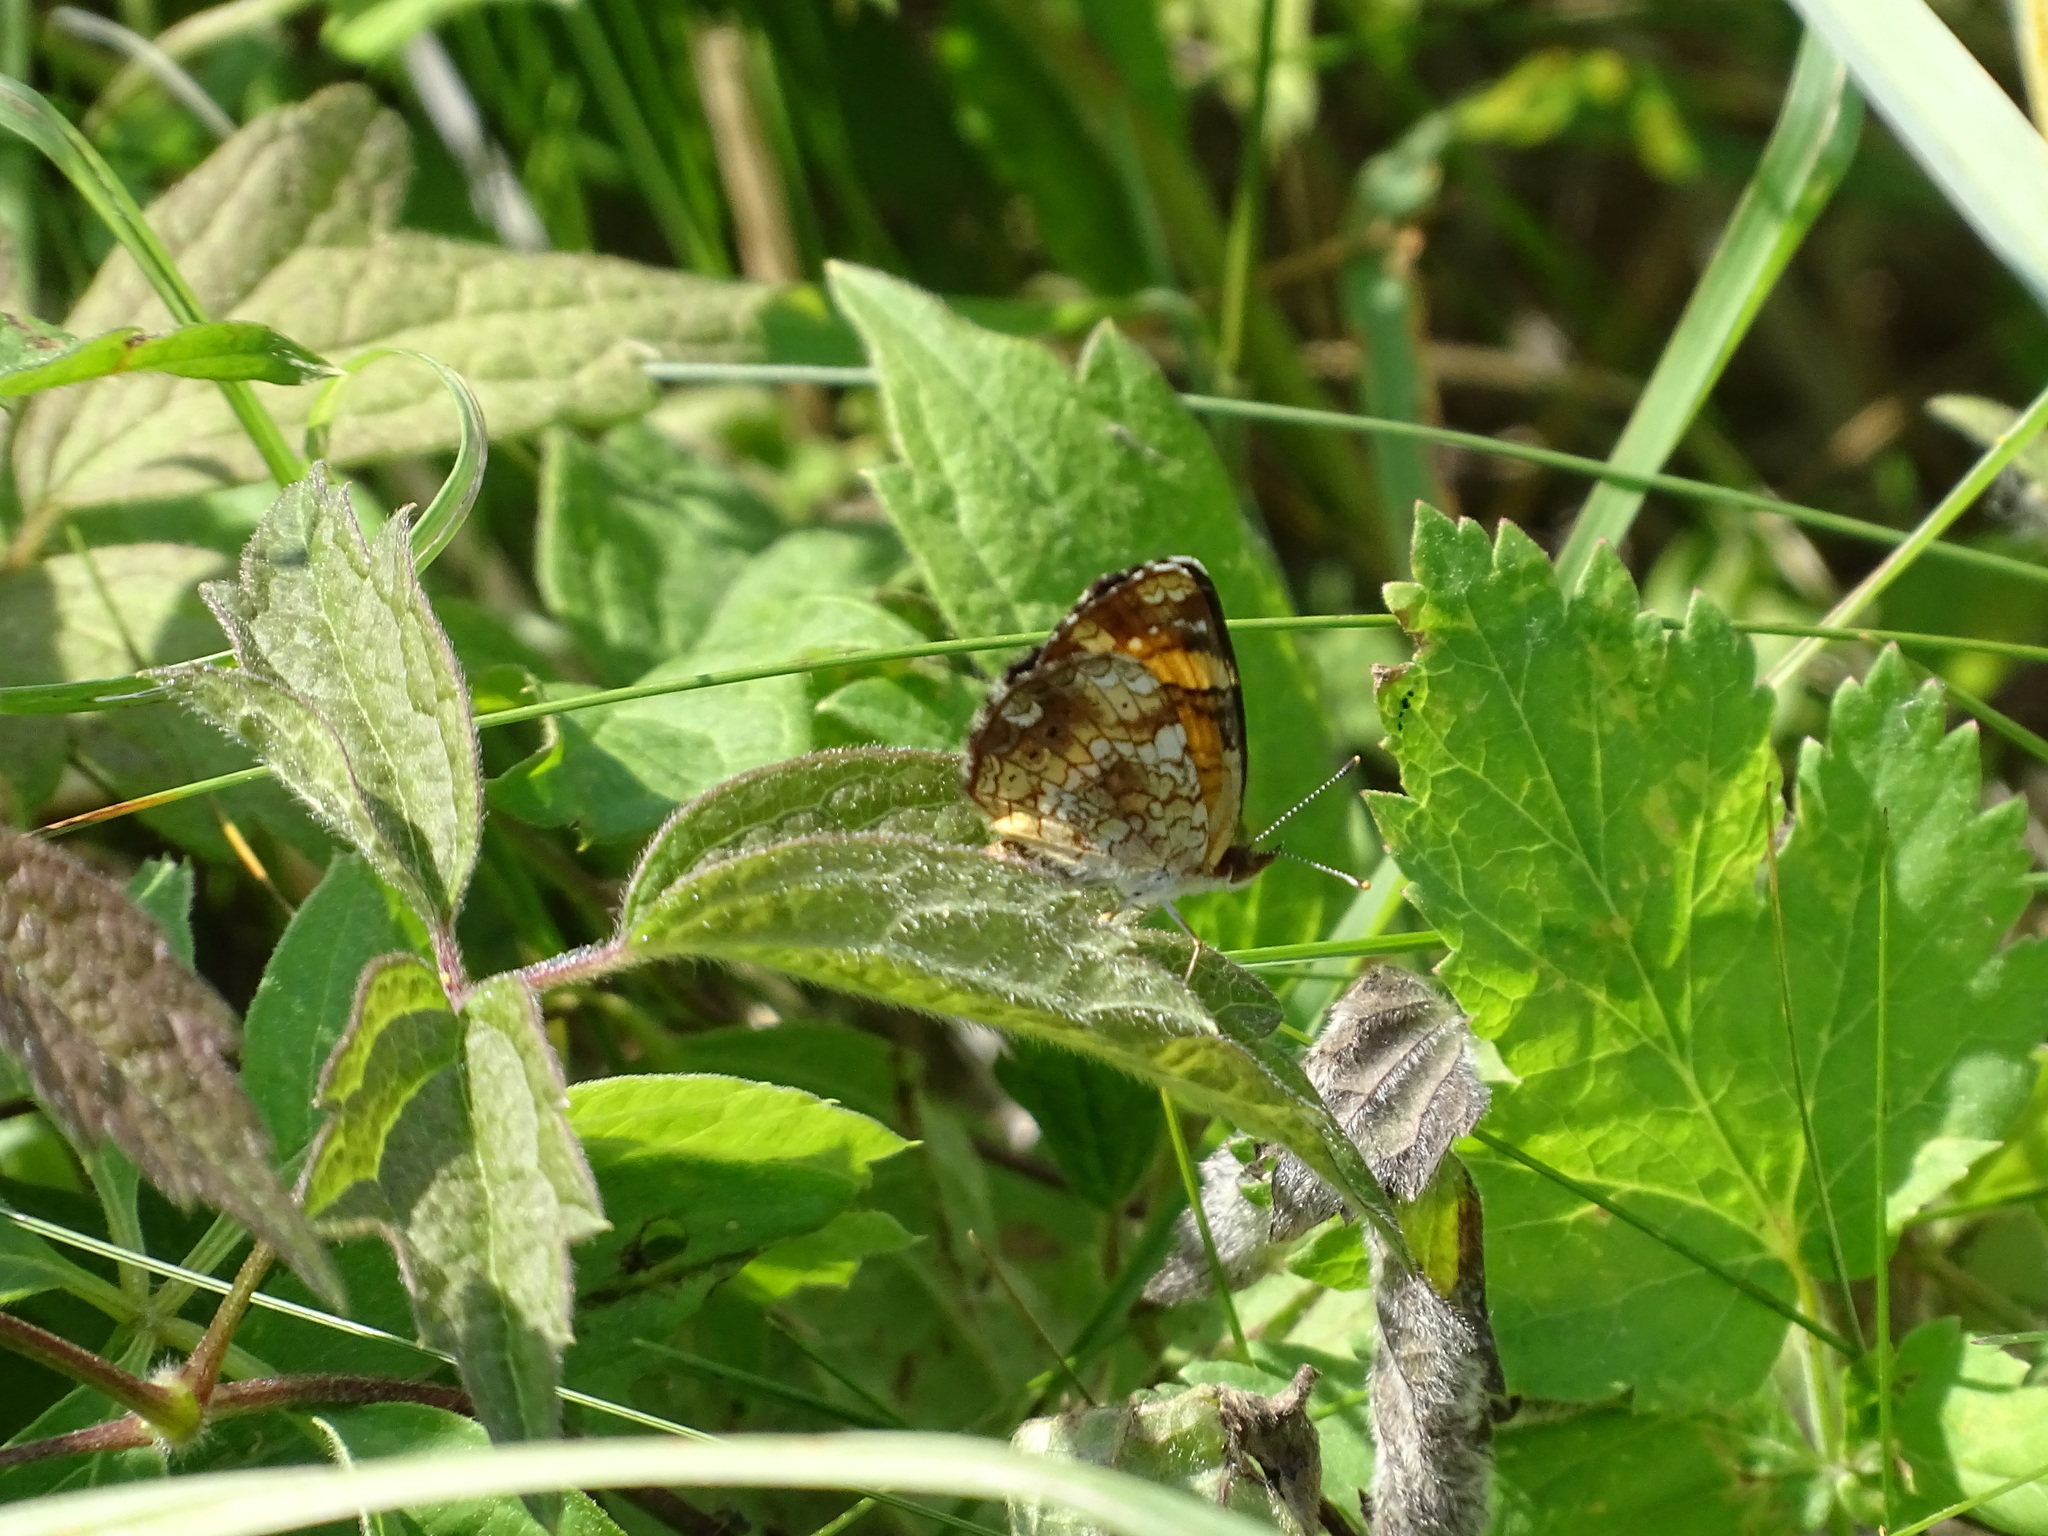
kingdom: Animalia
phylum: Arthropoda
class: Insecta
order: Lepidoptera
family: Nymphalidae
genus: Phyciodes
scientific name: Phyciodes tharos
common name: Pearl crescent
